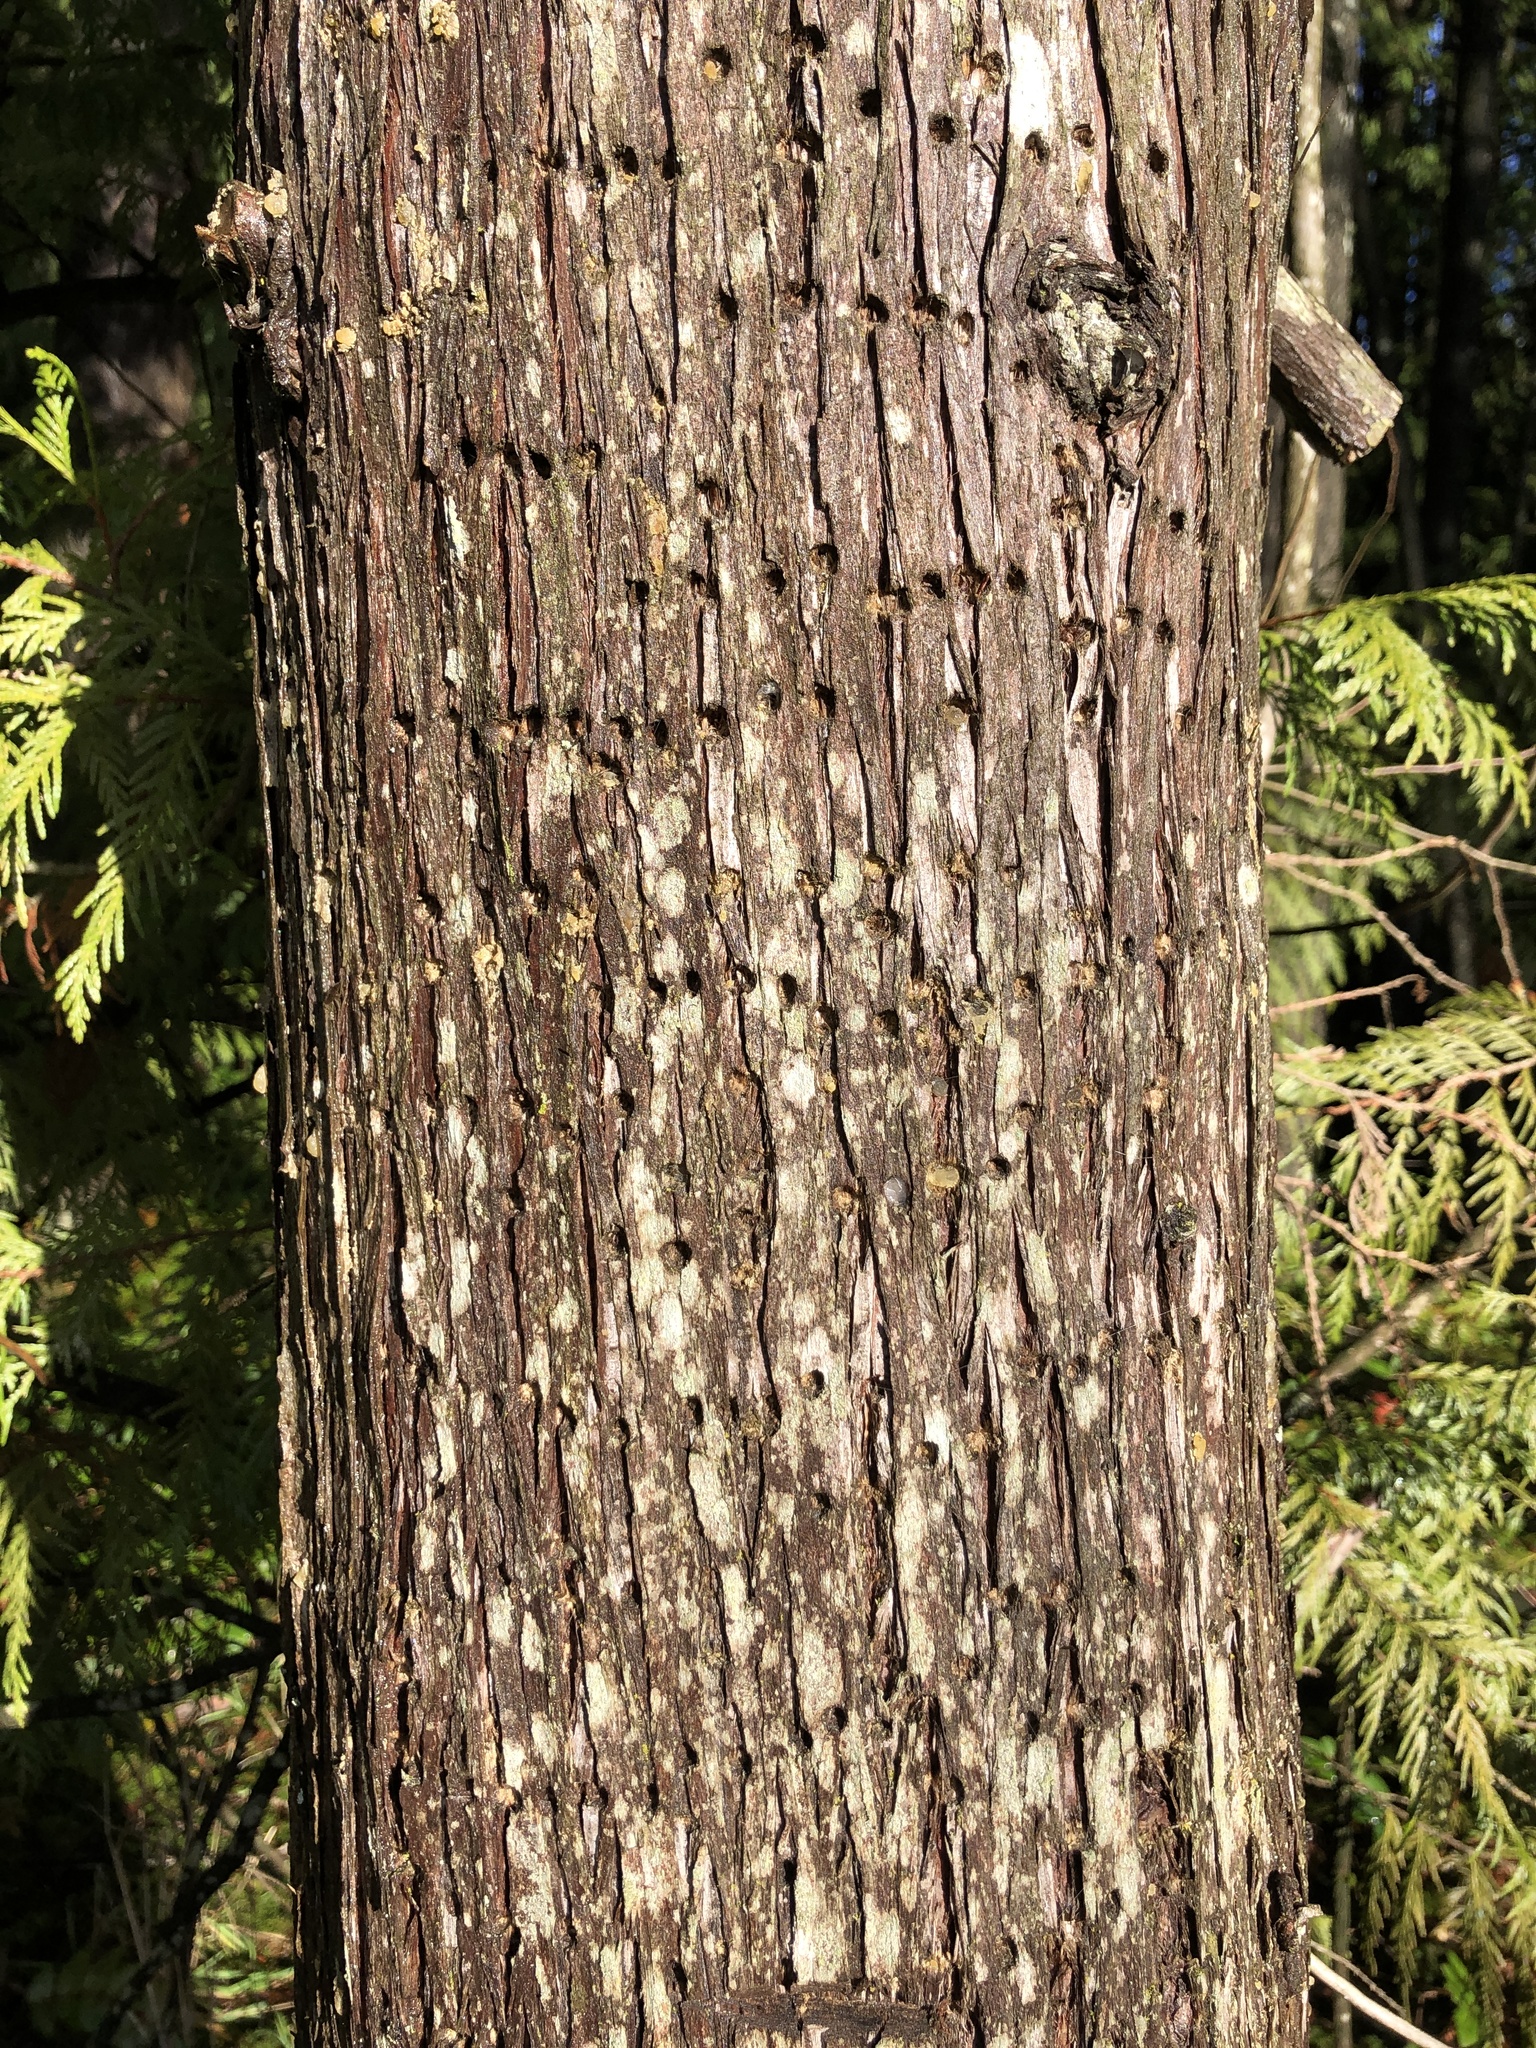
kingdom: Animalia
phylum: Chordata
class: Aves
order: Piciformes
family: Picidae
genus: Sphyrapicus
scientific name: Sphyrapicus ruber
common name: Red-breasted sapsucker
